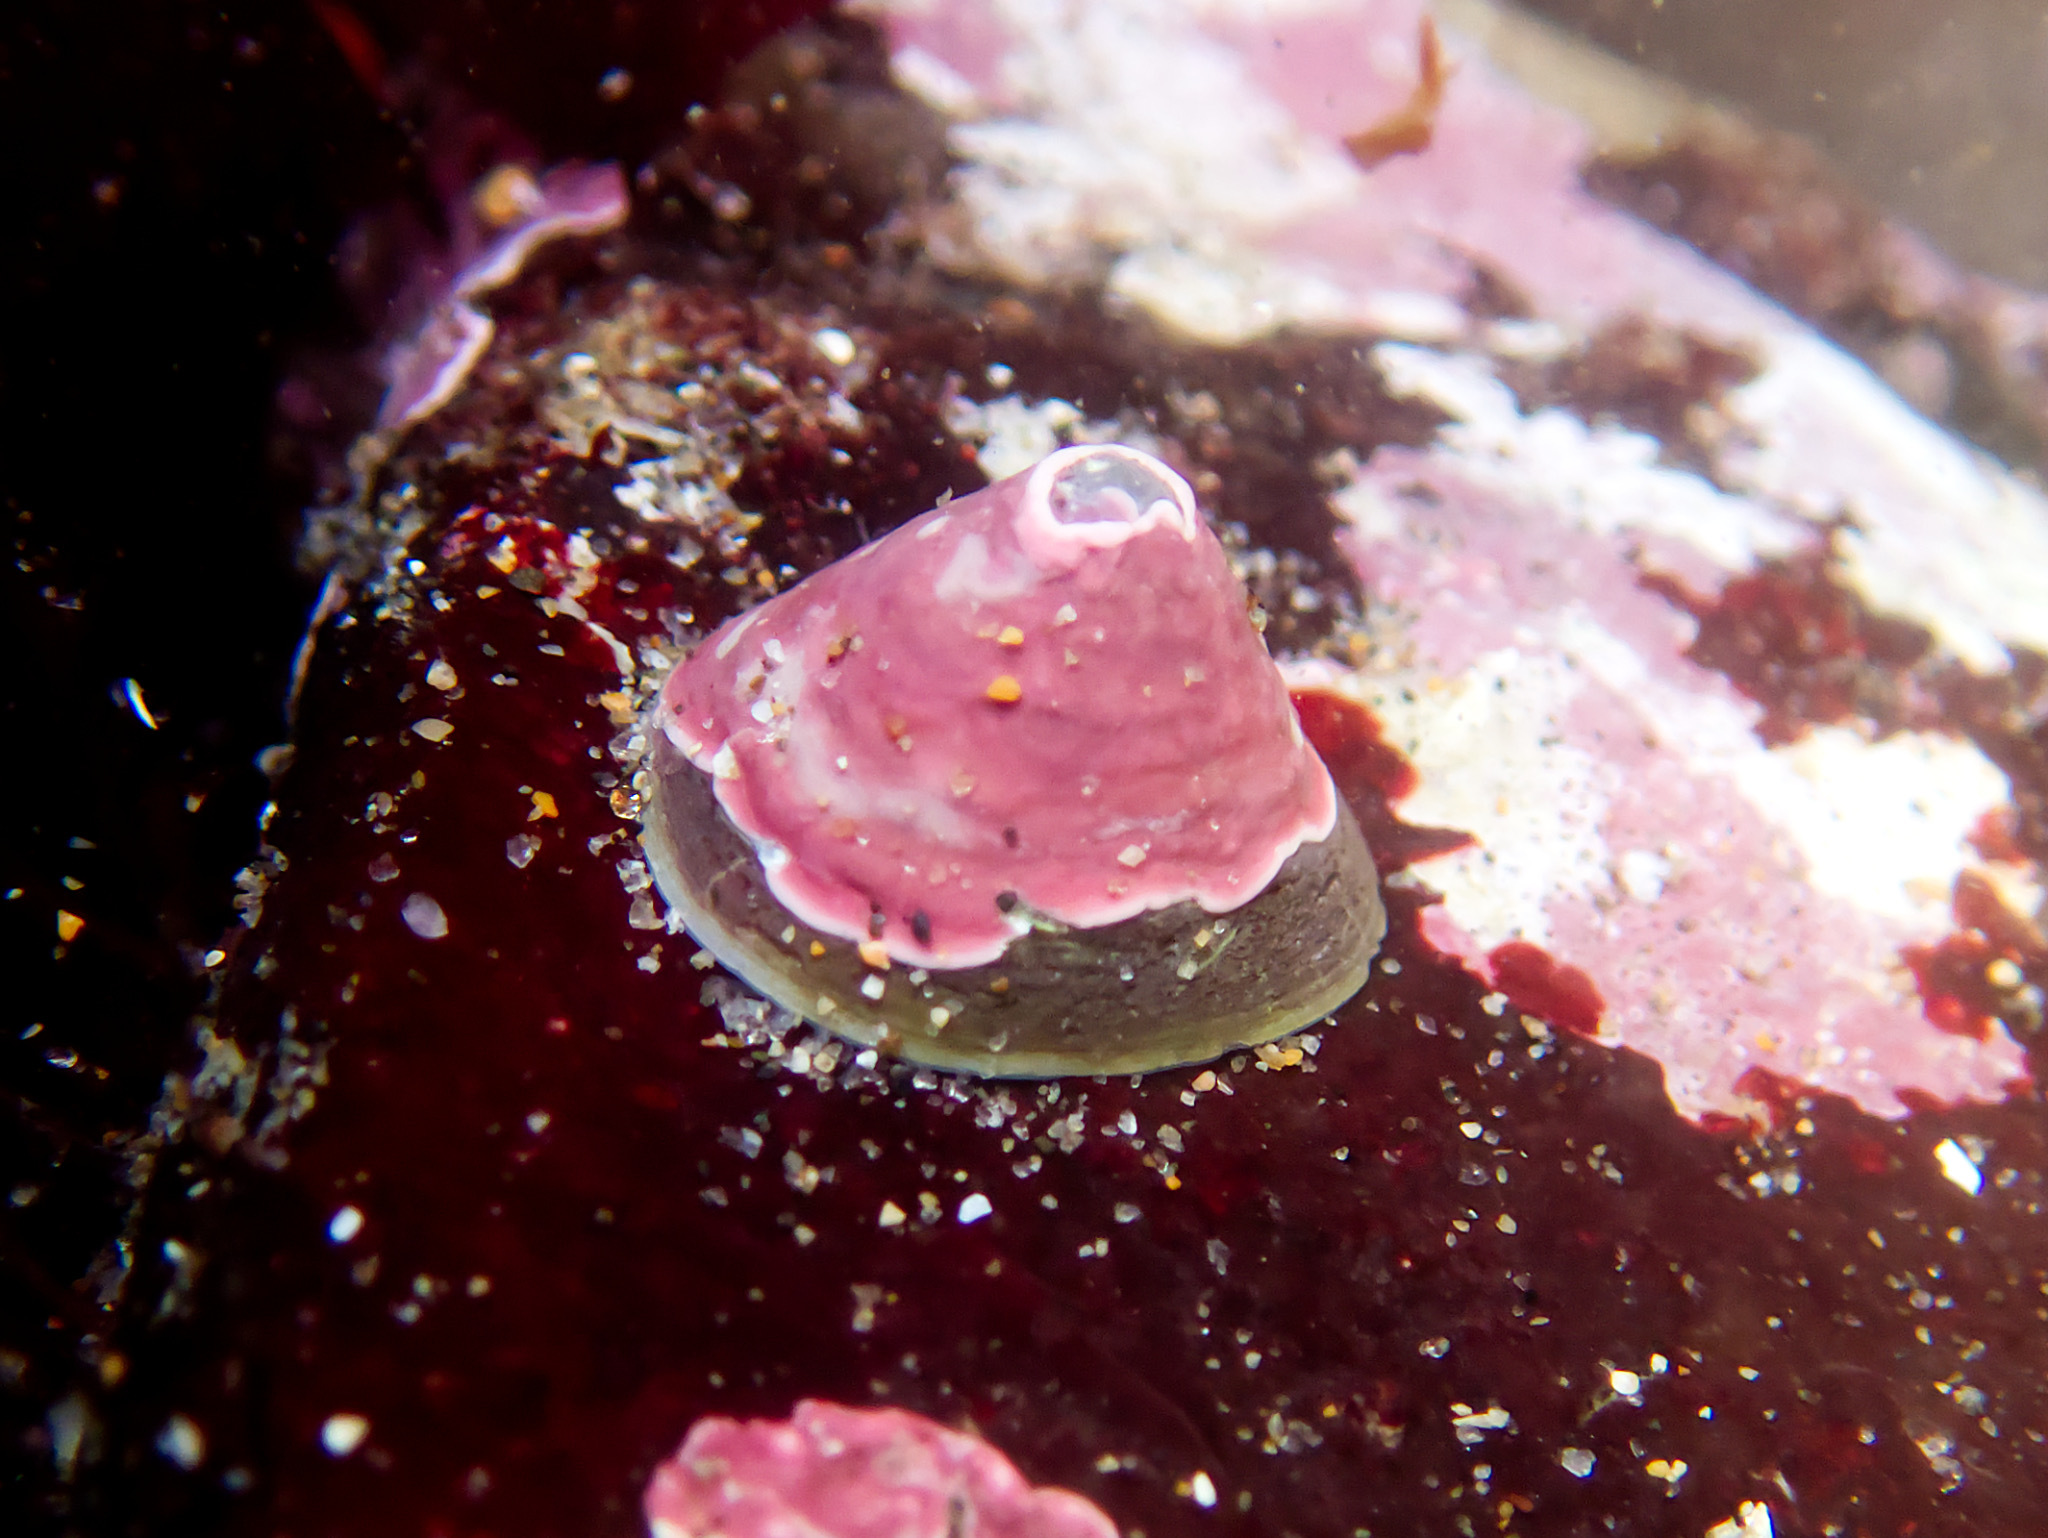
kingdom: Animalia
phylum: Mollusca
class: Gastropoda
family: Acmaeidae
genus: Acmaea
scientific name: Acmaea mitra
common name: Pacific white cap limpet
